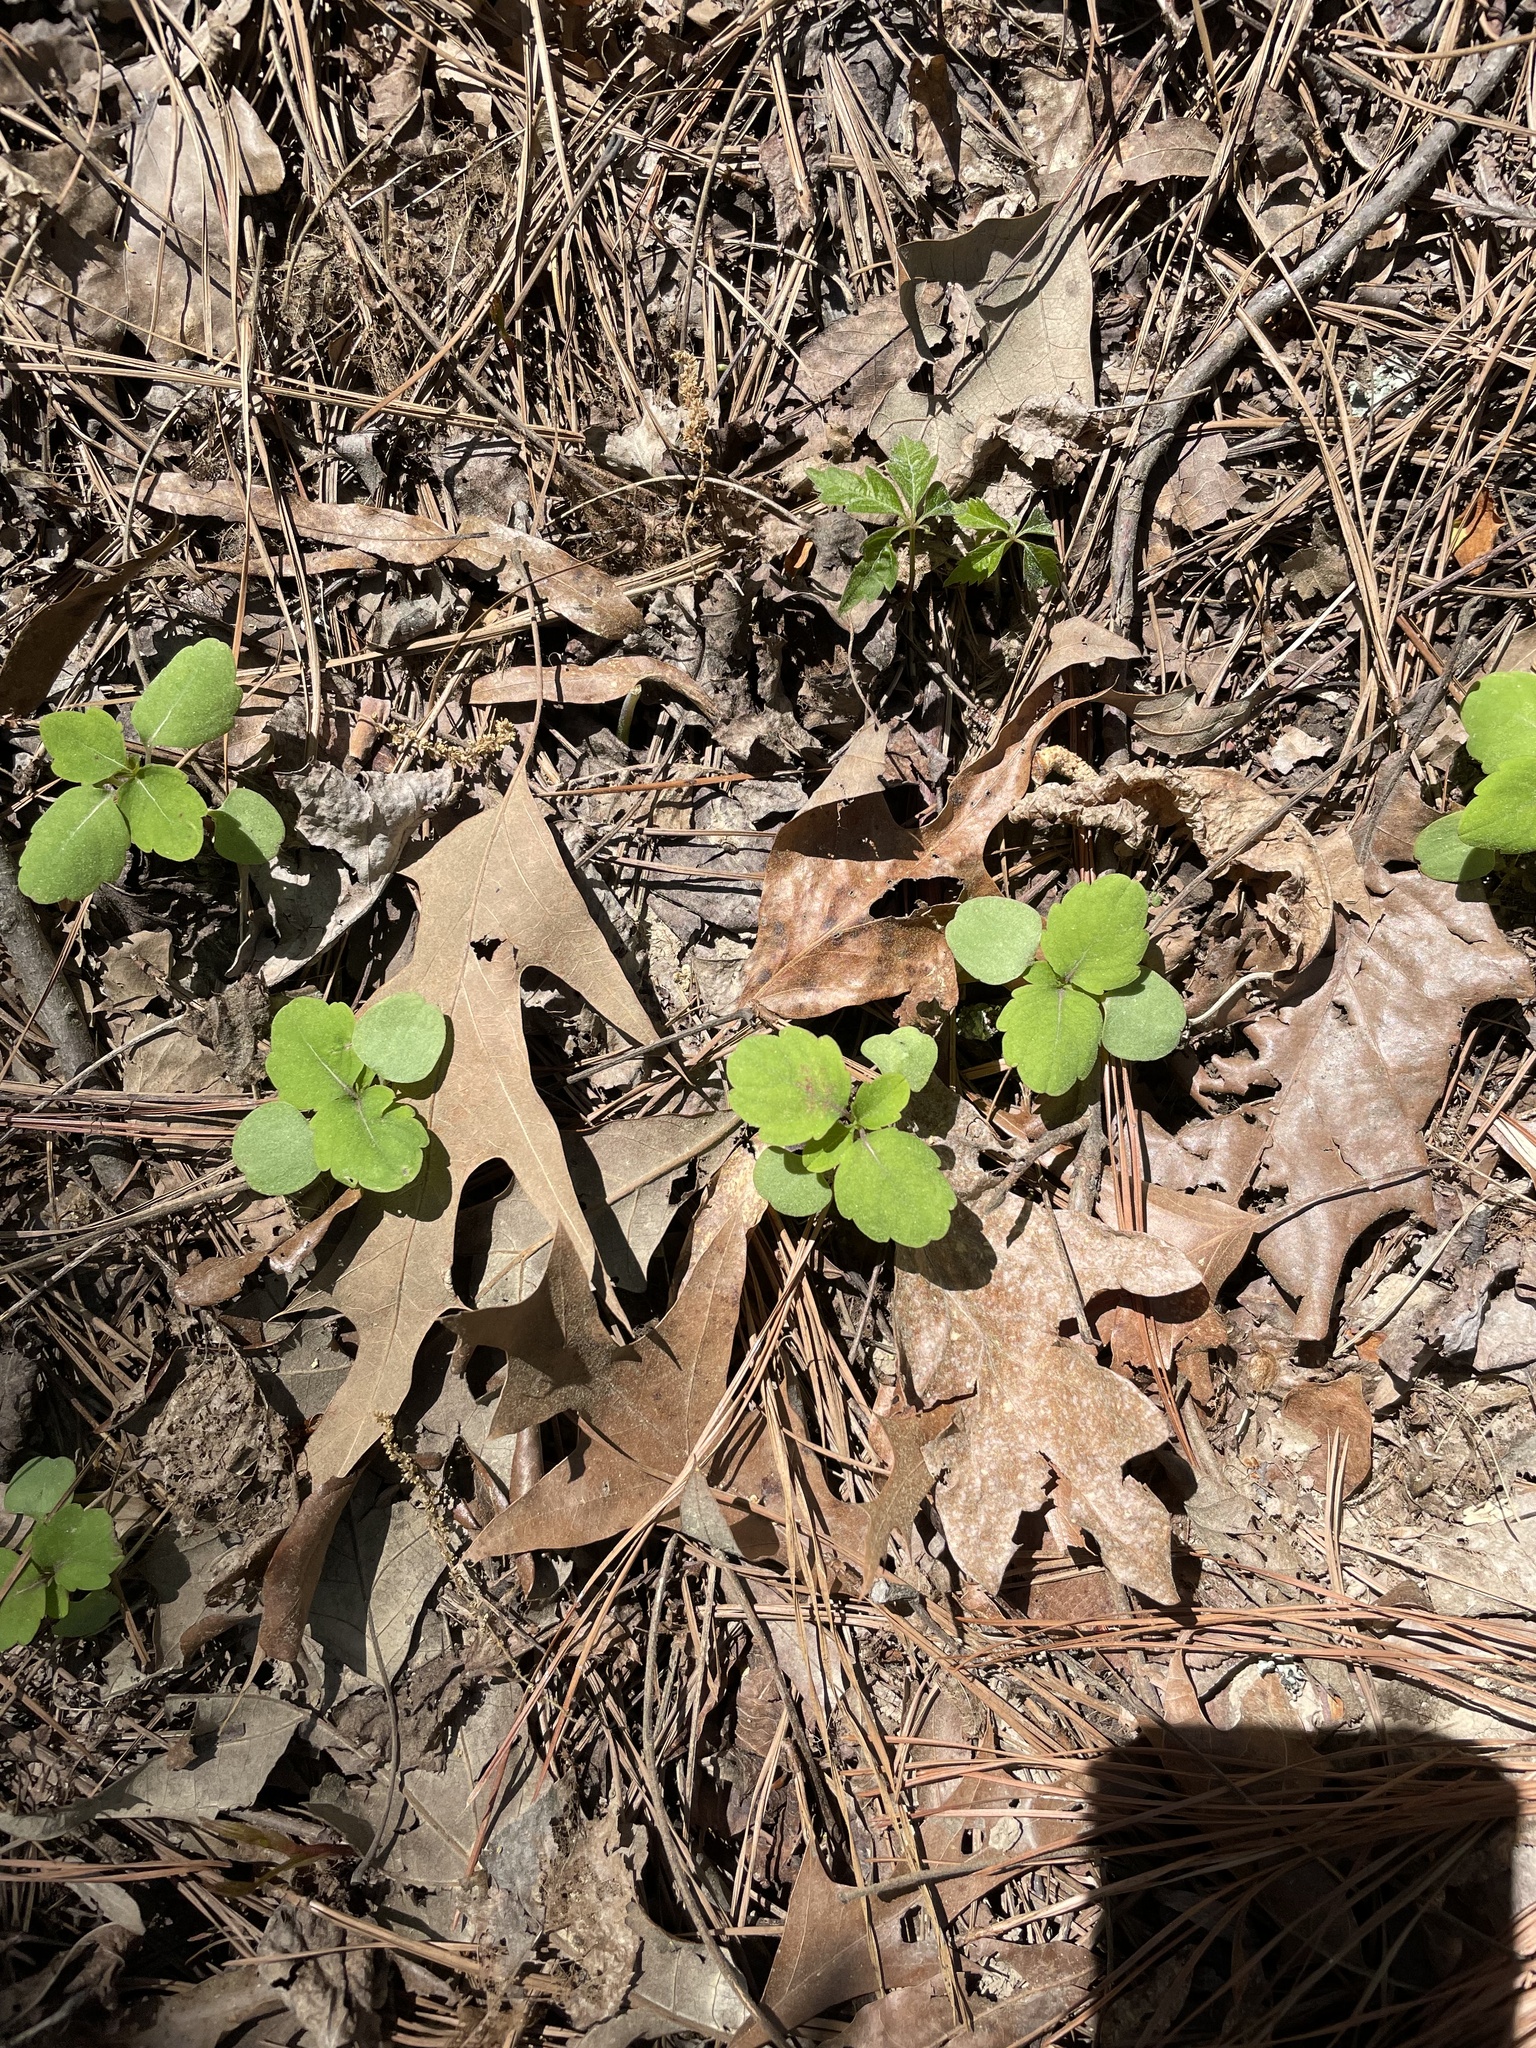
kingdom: Plantae
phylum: Tracheophyta
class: Magnoliopsida
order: Ericales
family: Balsaminaceae
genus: Impatiens
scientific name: Impatiens capensis
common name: Orange balsam
